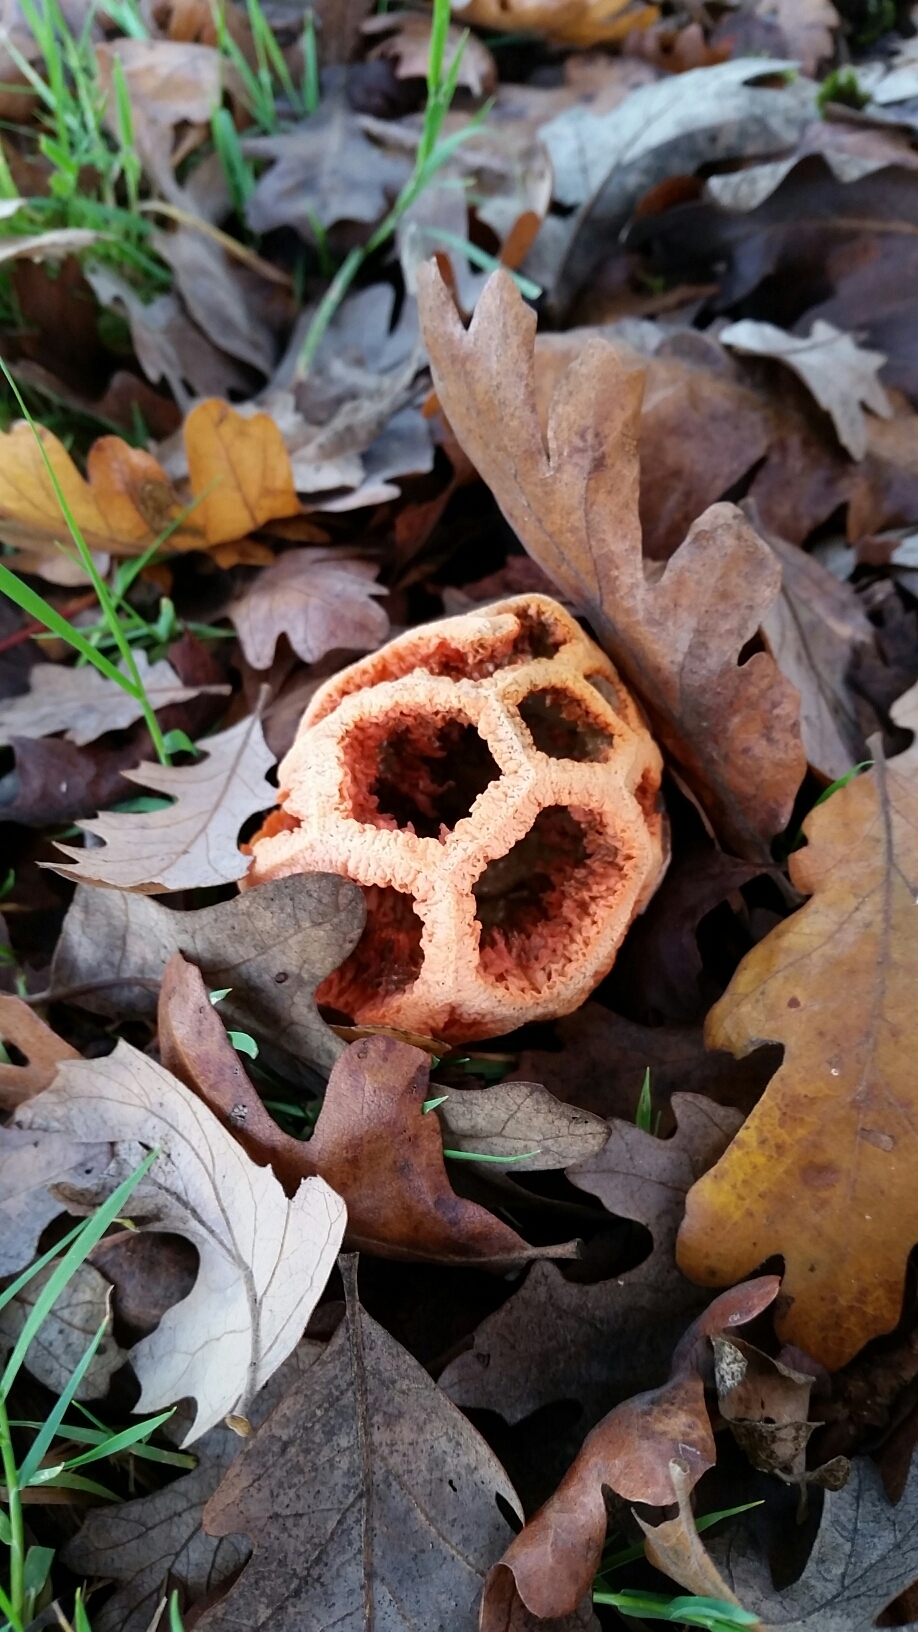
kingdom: Fungi
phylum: Basidiomycota
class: Agaricomycetes
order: Phallales
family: Phallaceae
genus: Clathrus
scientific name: Clathrus ruber
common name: Red cage
